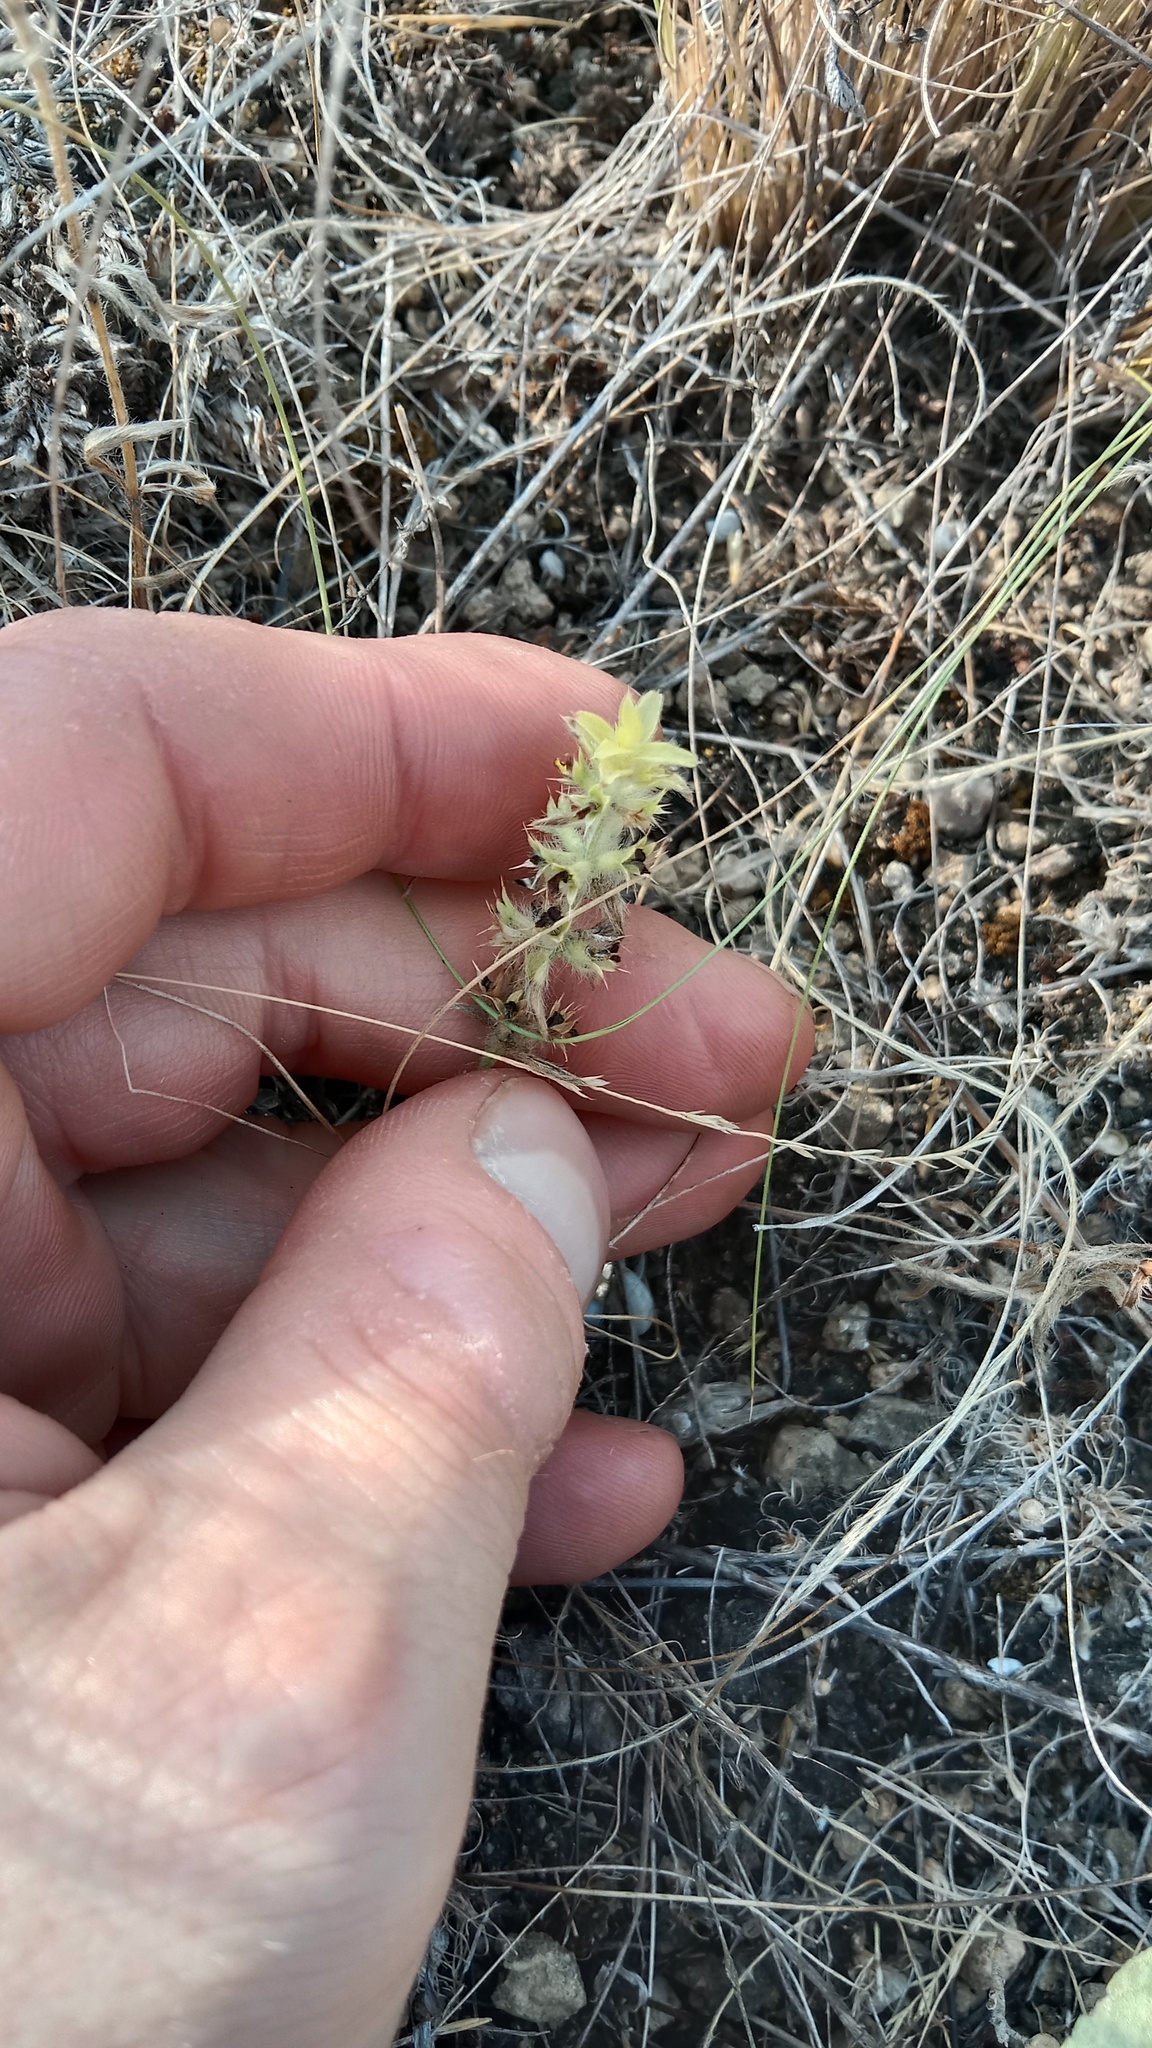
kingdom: Plantae
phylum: Tracheophyta
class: Magnoliopsida
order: Lamiales
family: Lamiaceae
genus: Sideritis
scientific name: Sideritis montana
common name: Mountain ironwort
